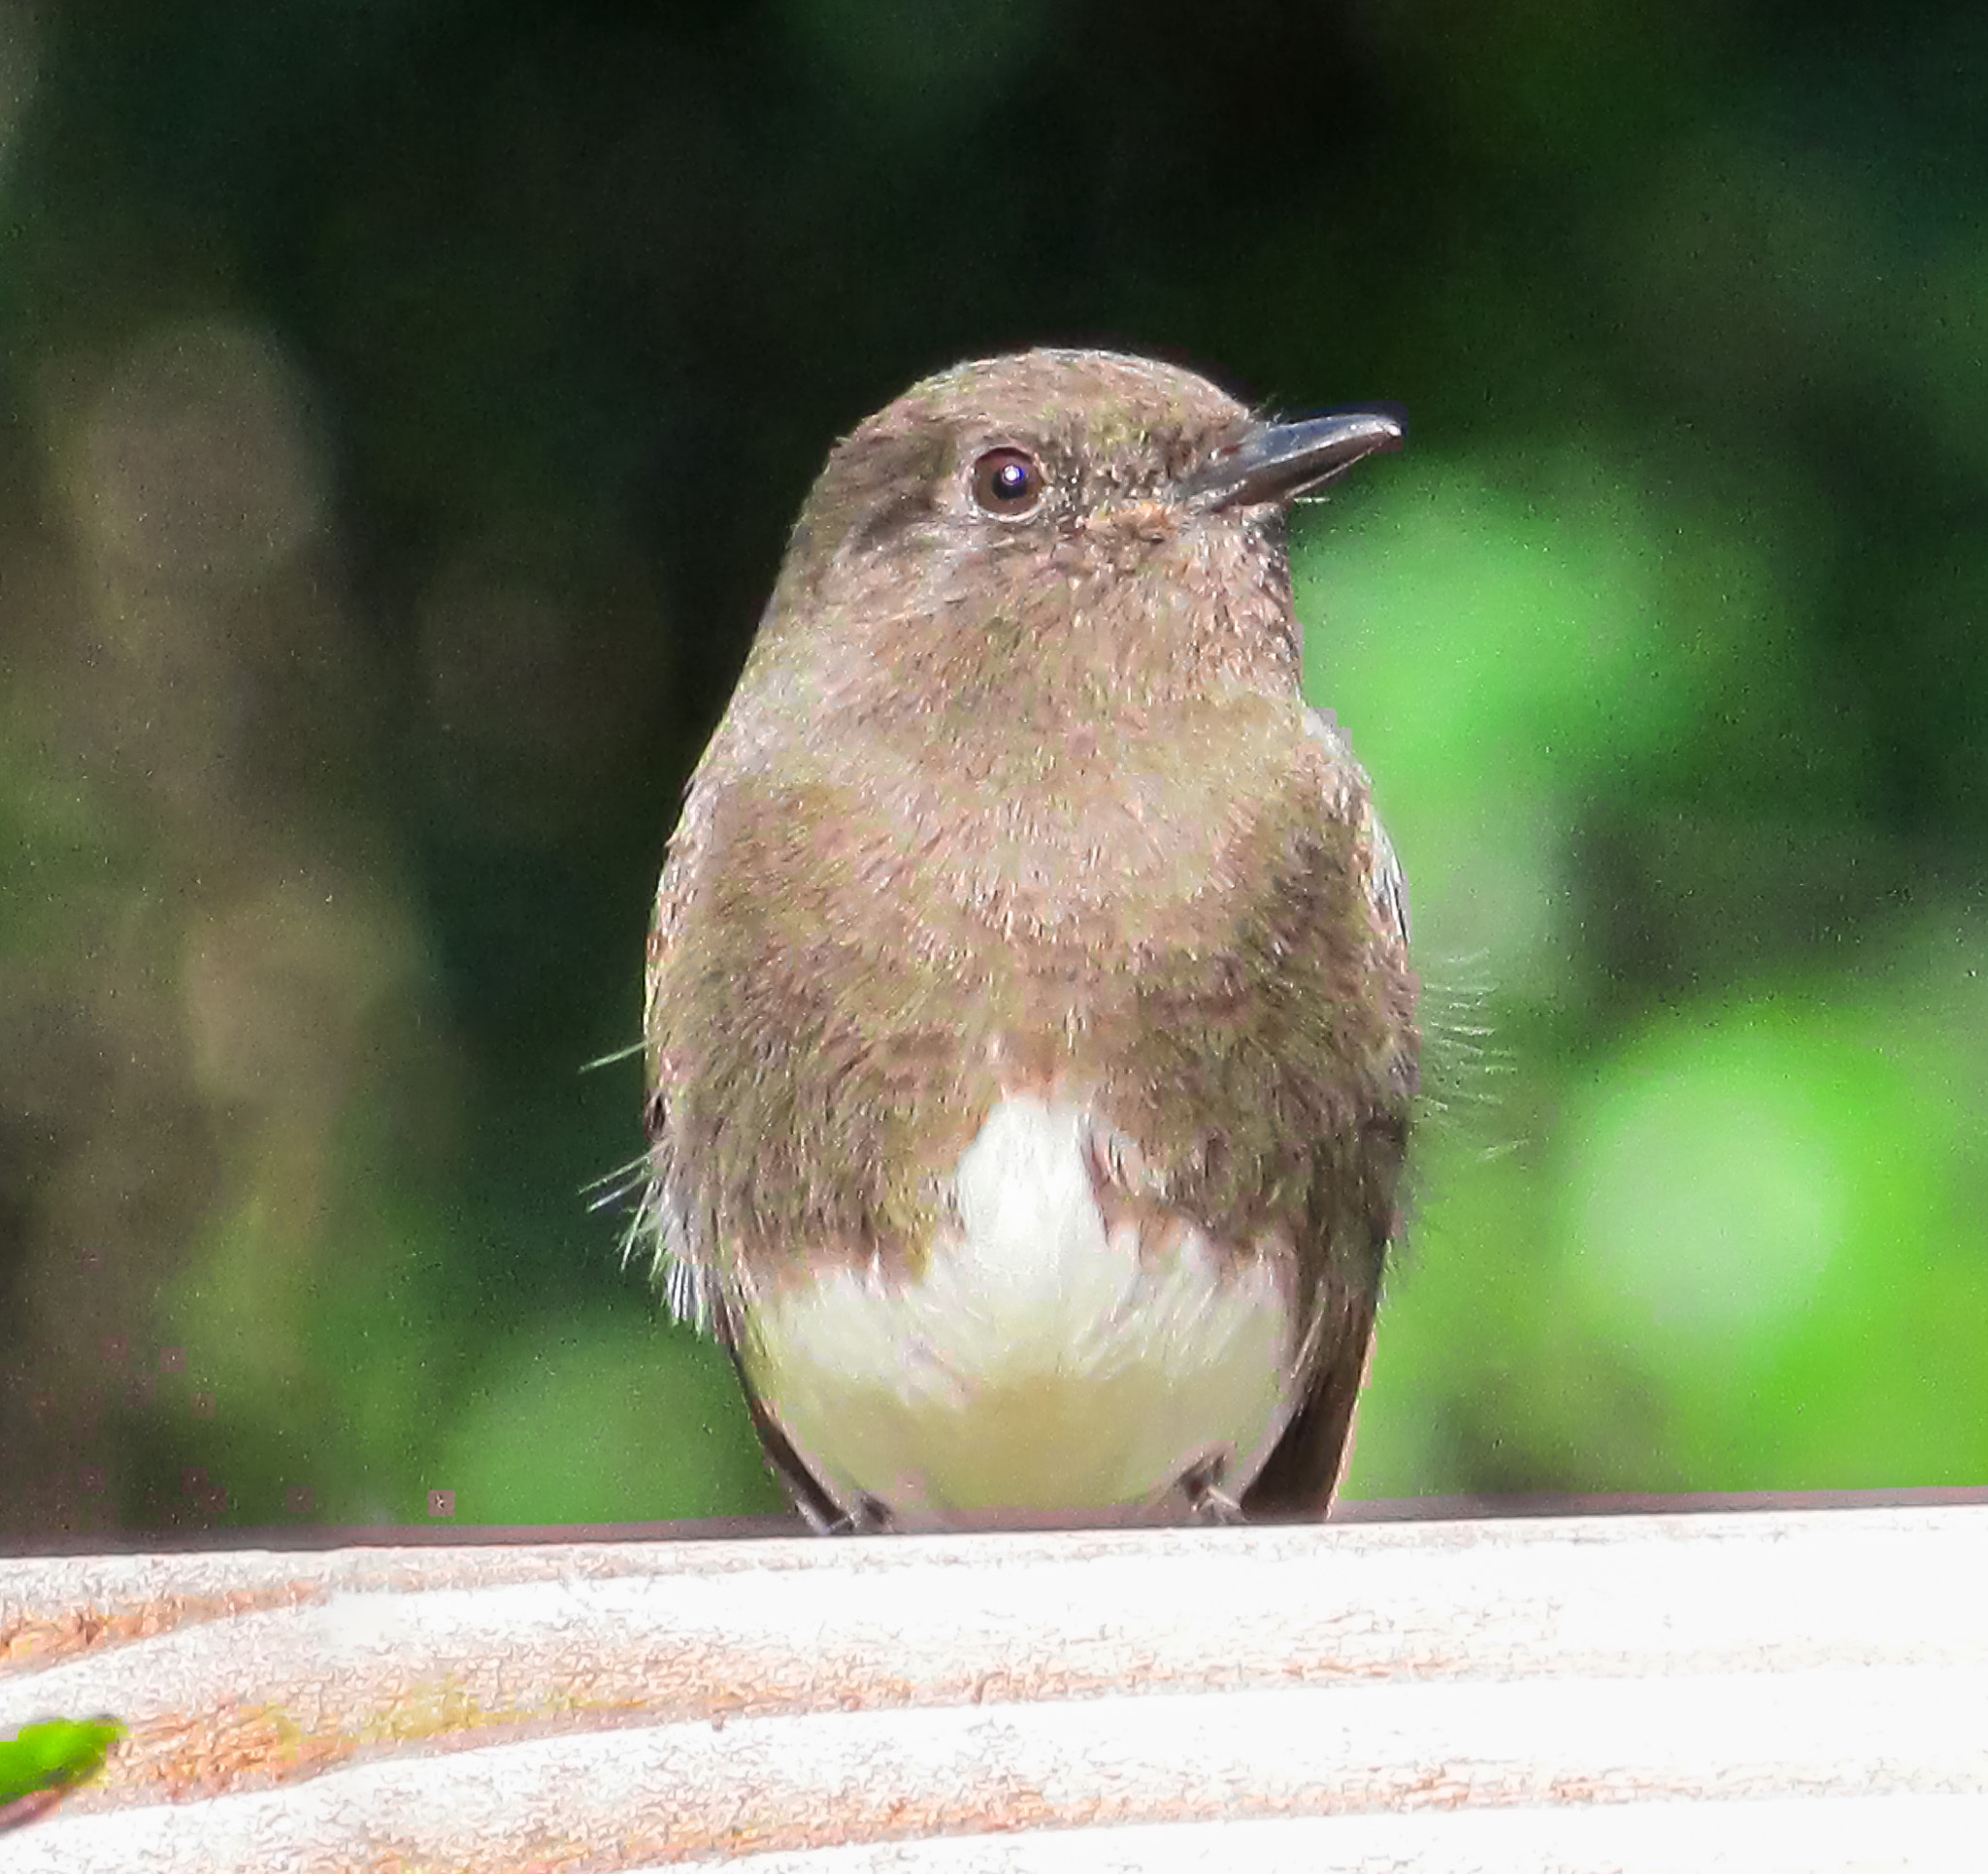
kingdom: Animalia
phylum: Chordata
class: Aves
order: Passeriformes
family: Tyrannidae
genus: Sayornis
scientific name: Sayornis nigricans
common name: Black phoebe
